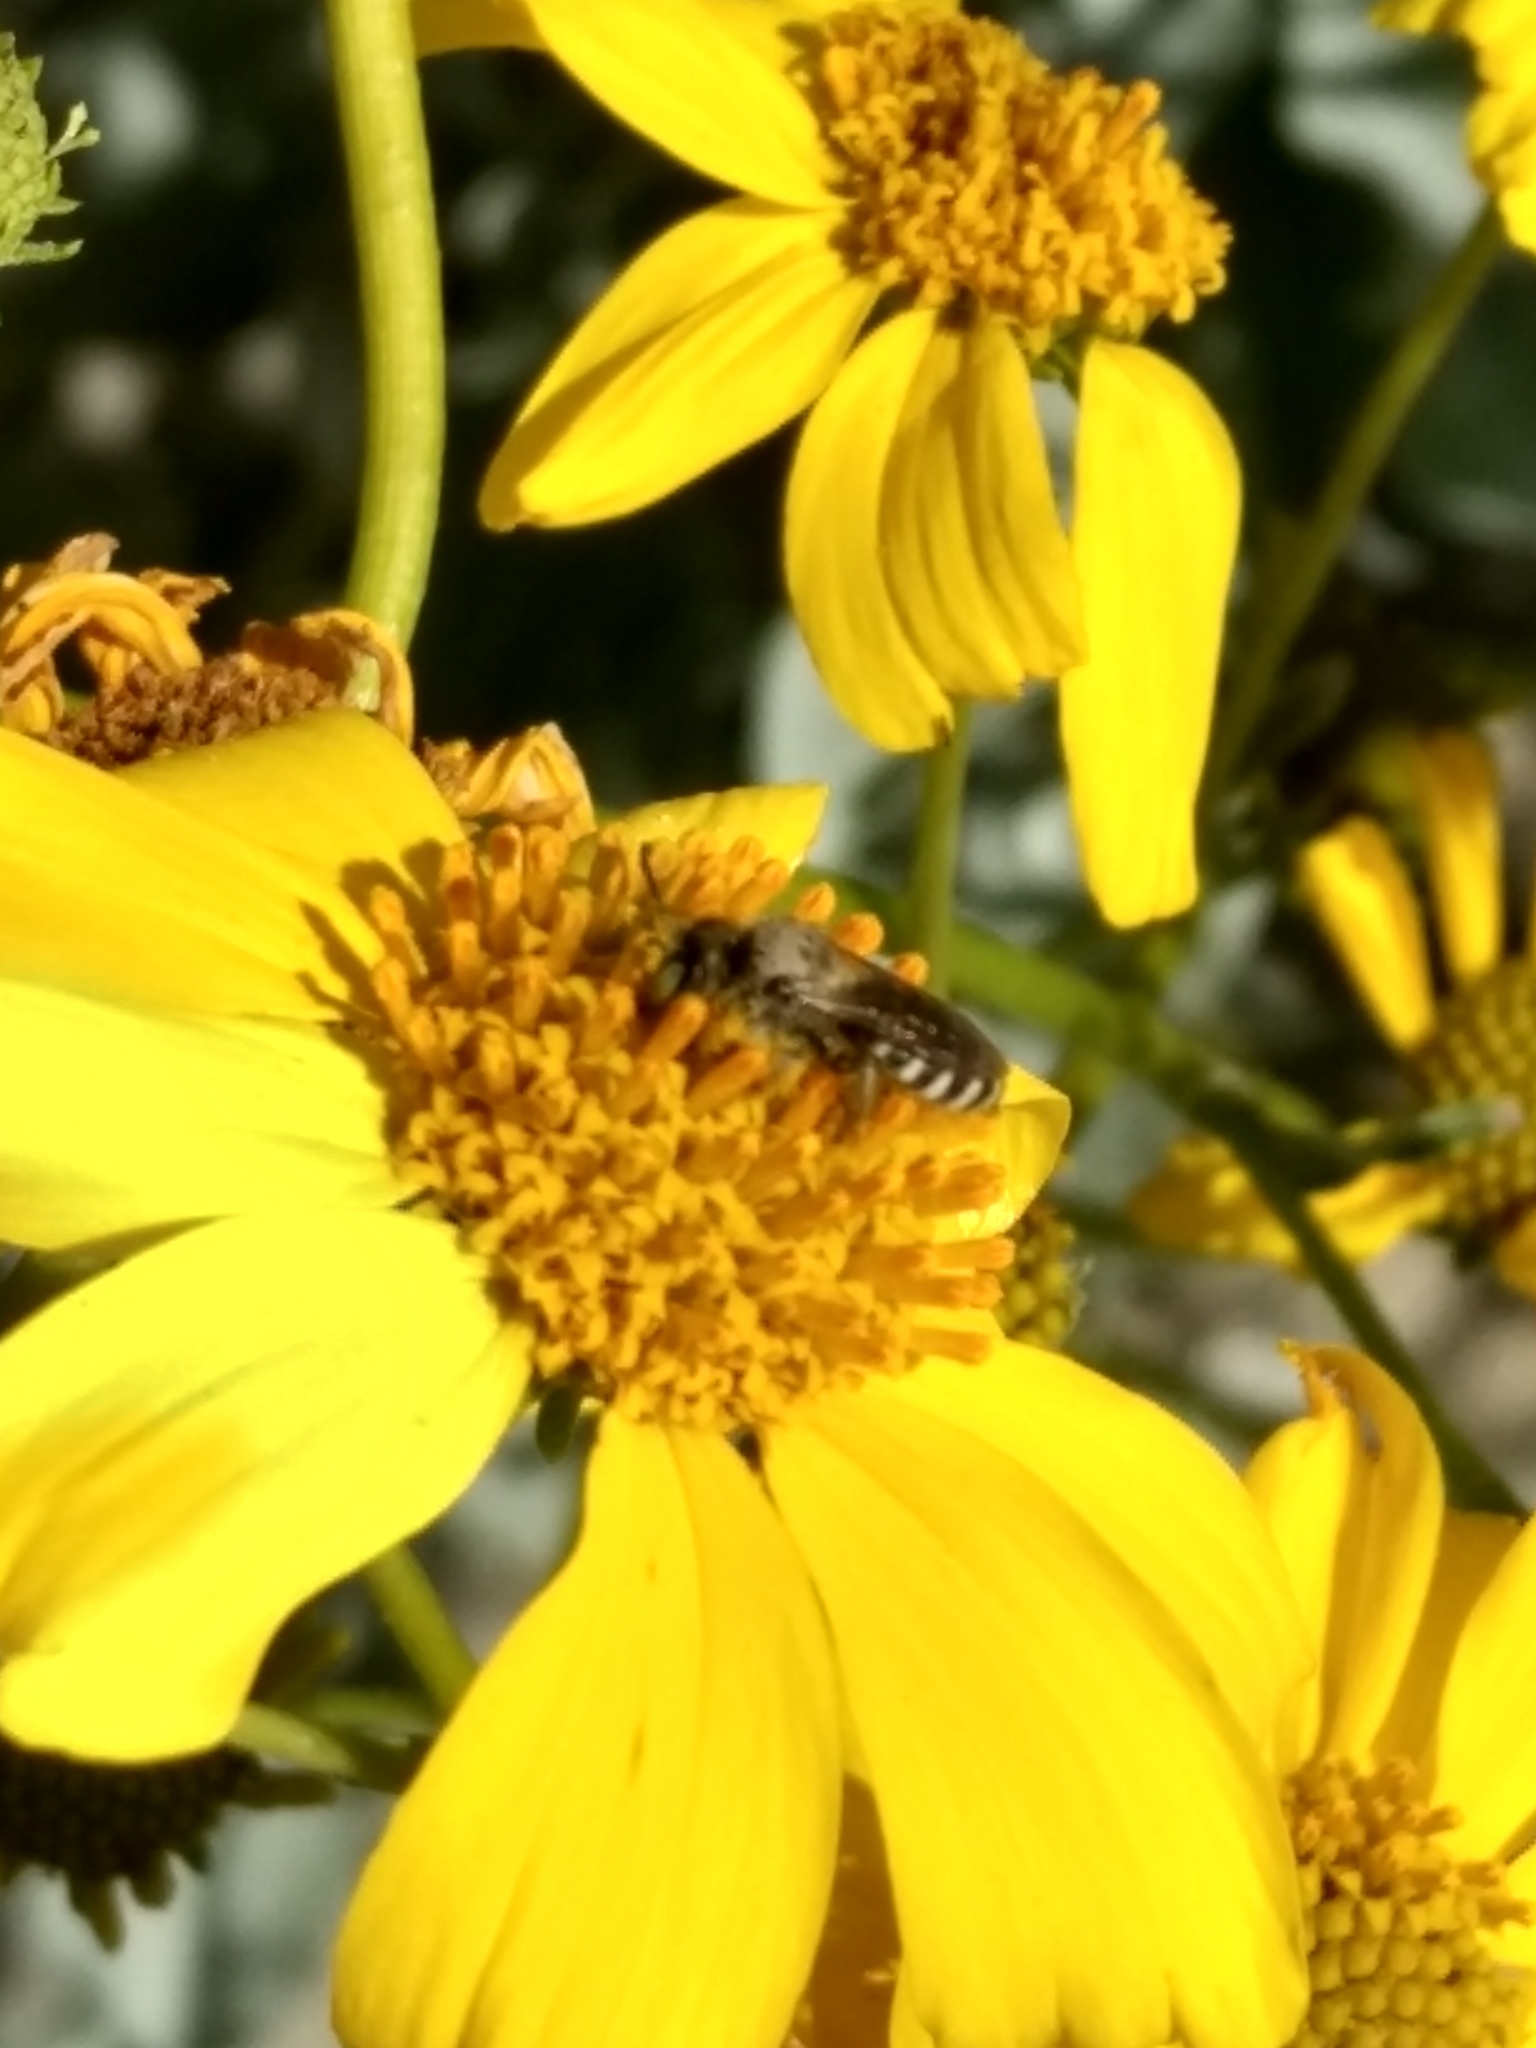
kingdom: Animalia
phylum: Arthropoda
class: Insecta
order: Hymenoptera
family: Melittidae
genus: Hesperapis
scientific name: Hesperapis
